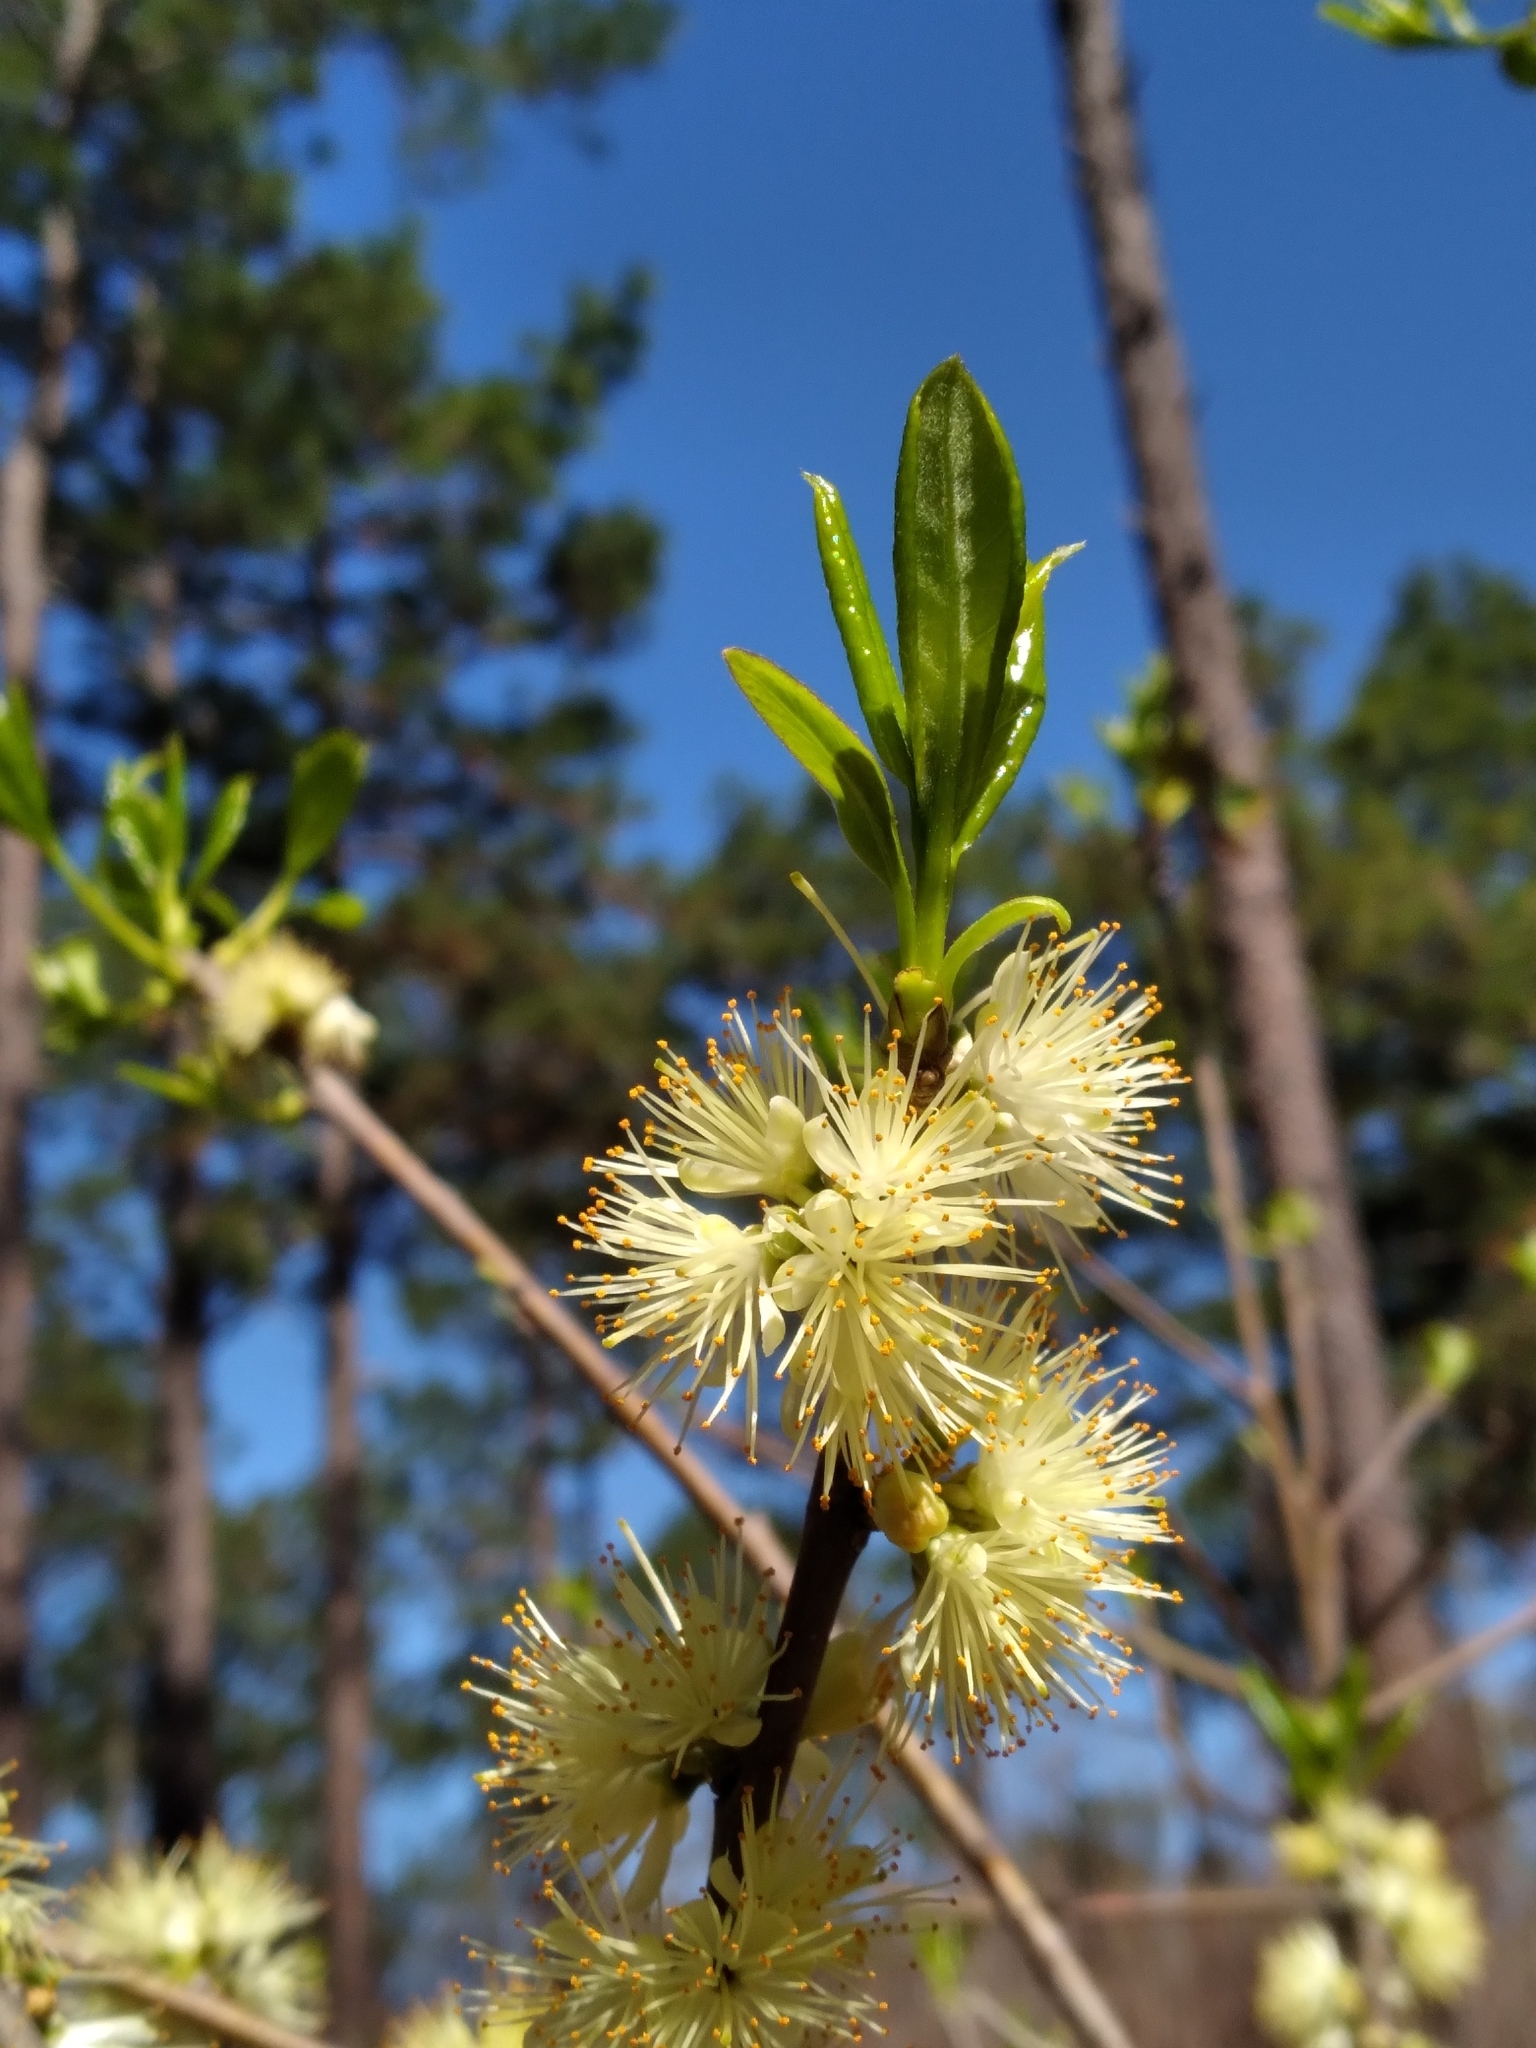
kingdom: Plantae
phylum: Tracheophyta
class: Magnoliopsida
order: Ericales
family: Symplocaceae
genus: Symplocos
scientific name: Symplocos tinctoria
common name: Horse-sugar
